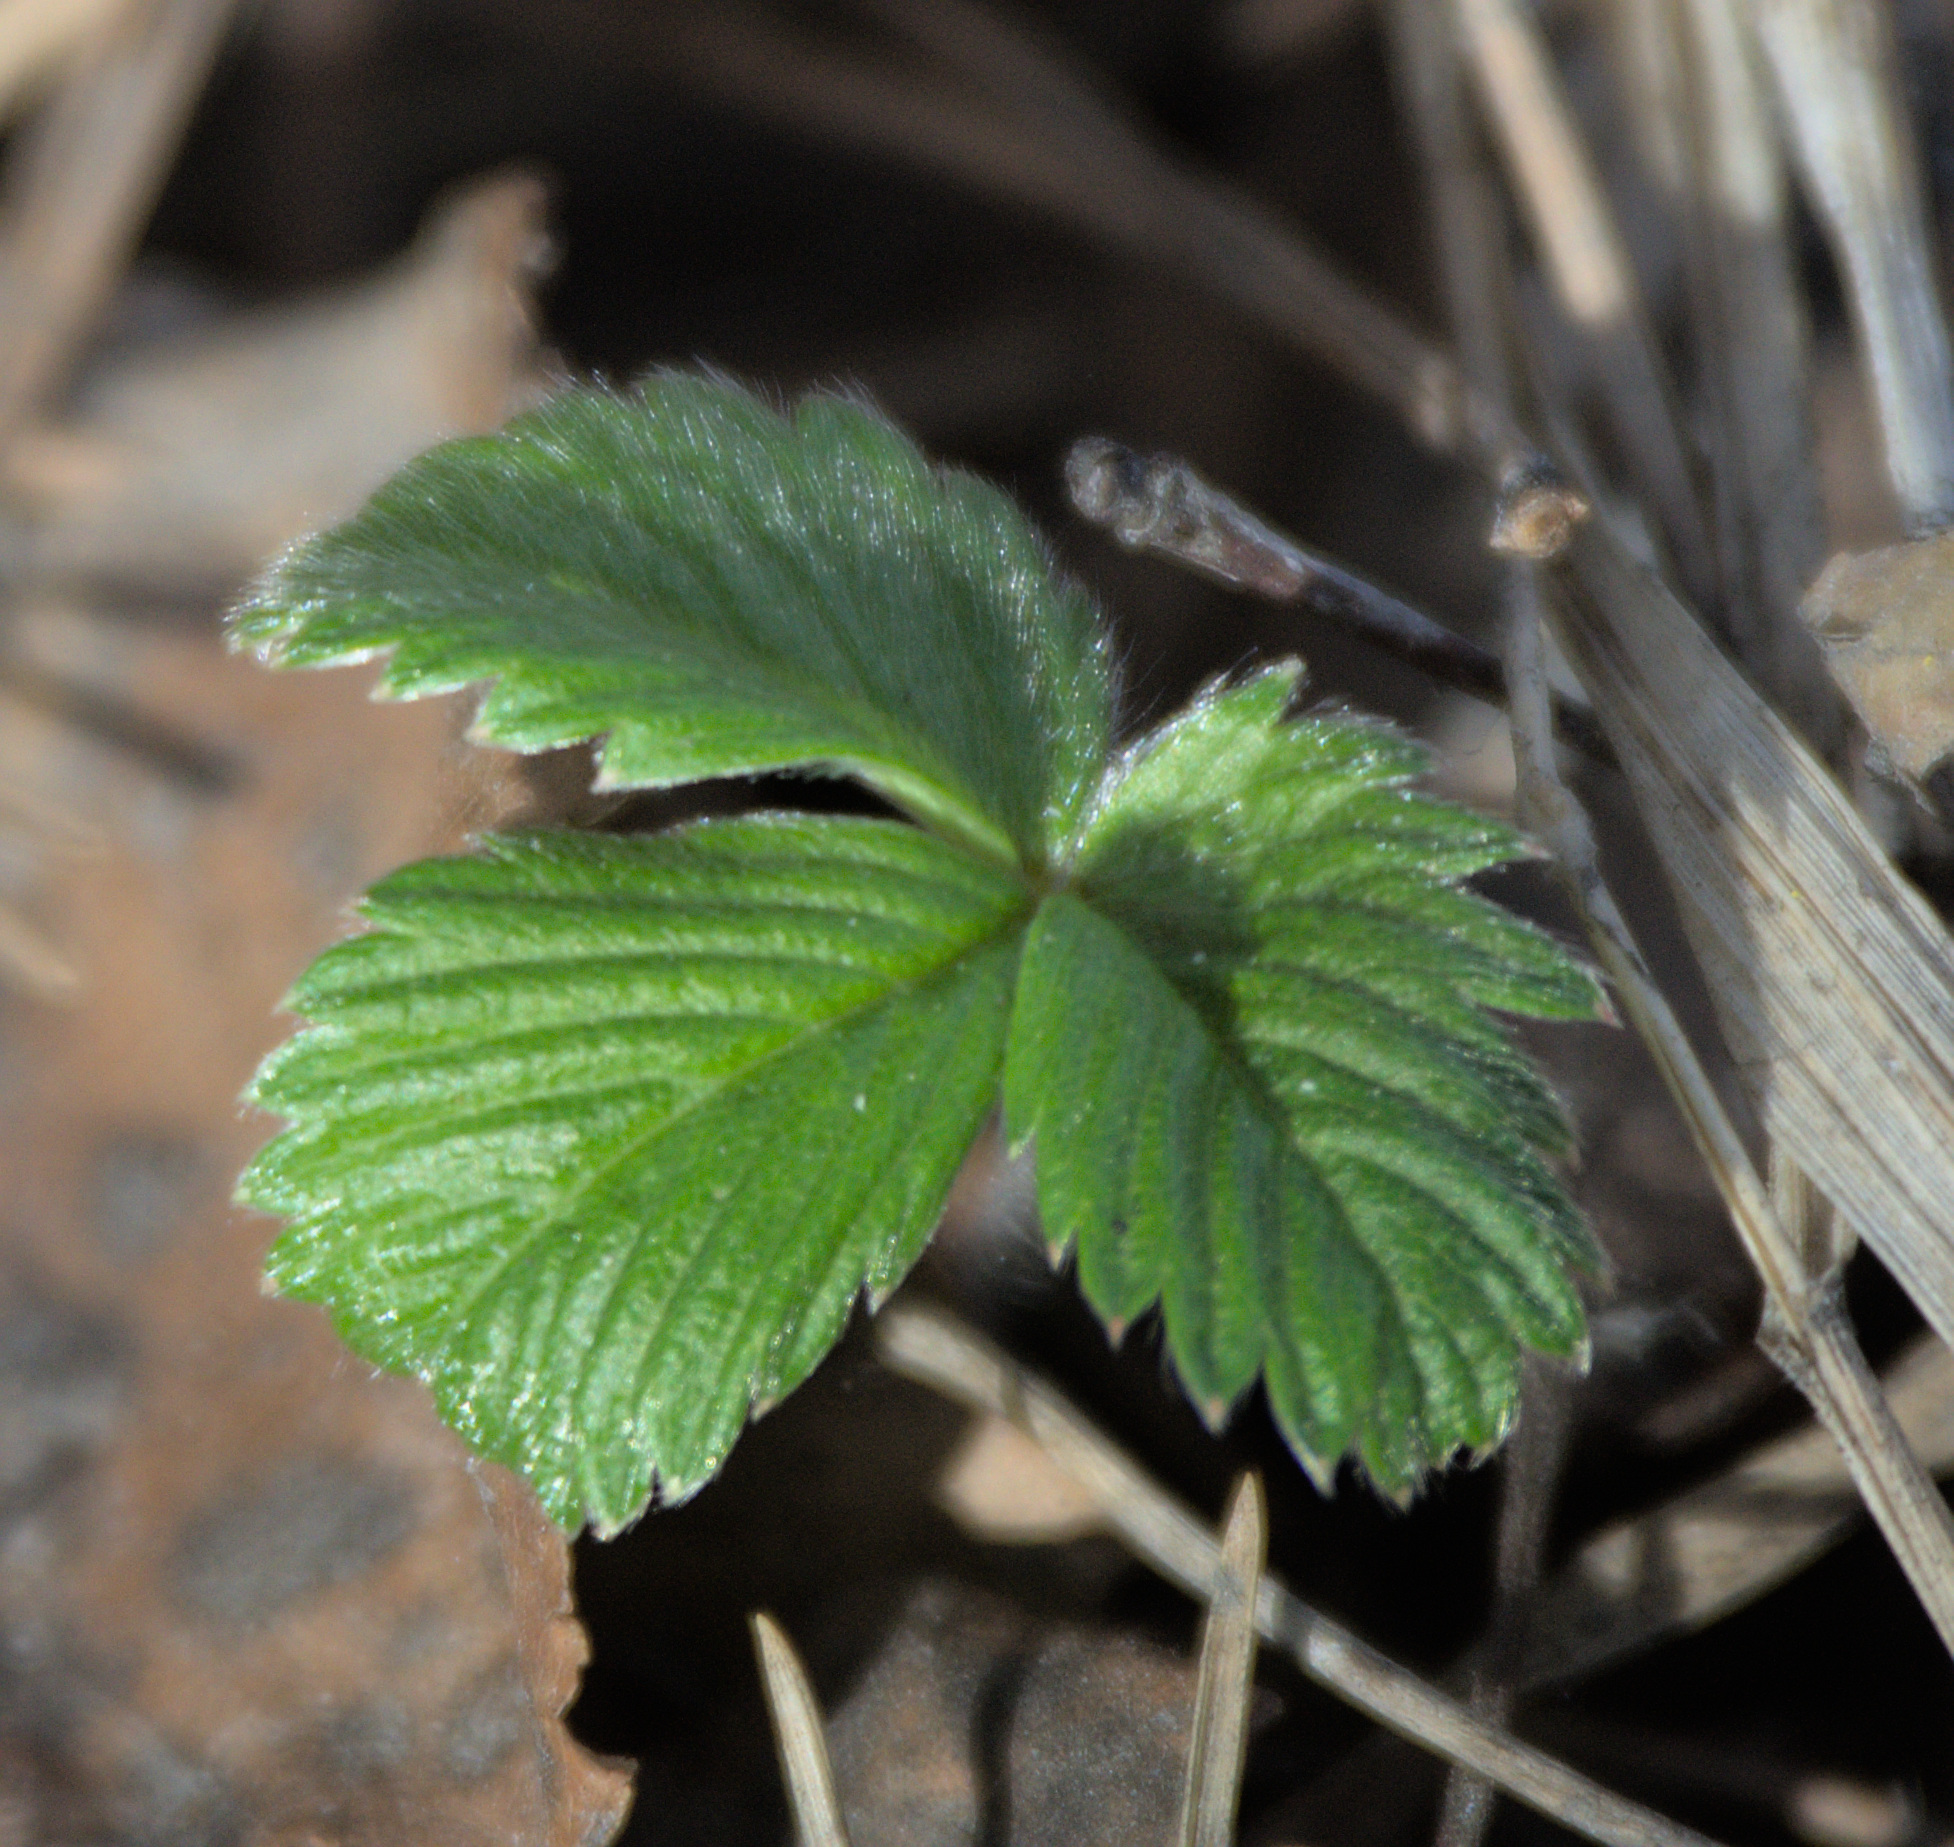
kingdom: Plantae
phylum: Tracheophyta
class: Magnoliopsida
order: Rosales
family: Rosaceae
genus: Fragaria
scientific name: Fragaria vesca
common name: Wild strawberry
